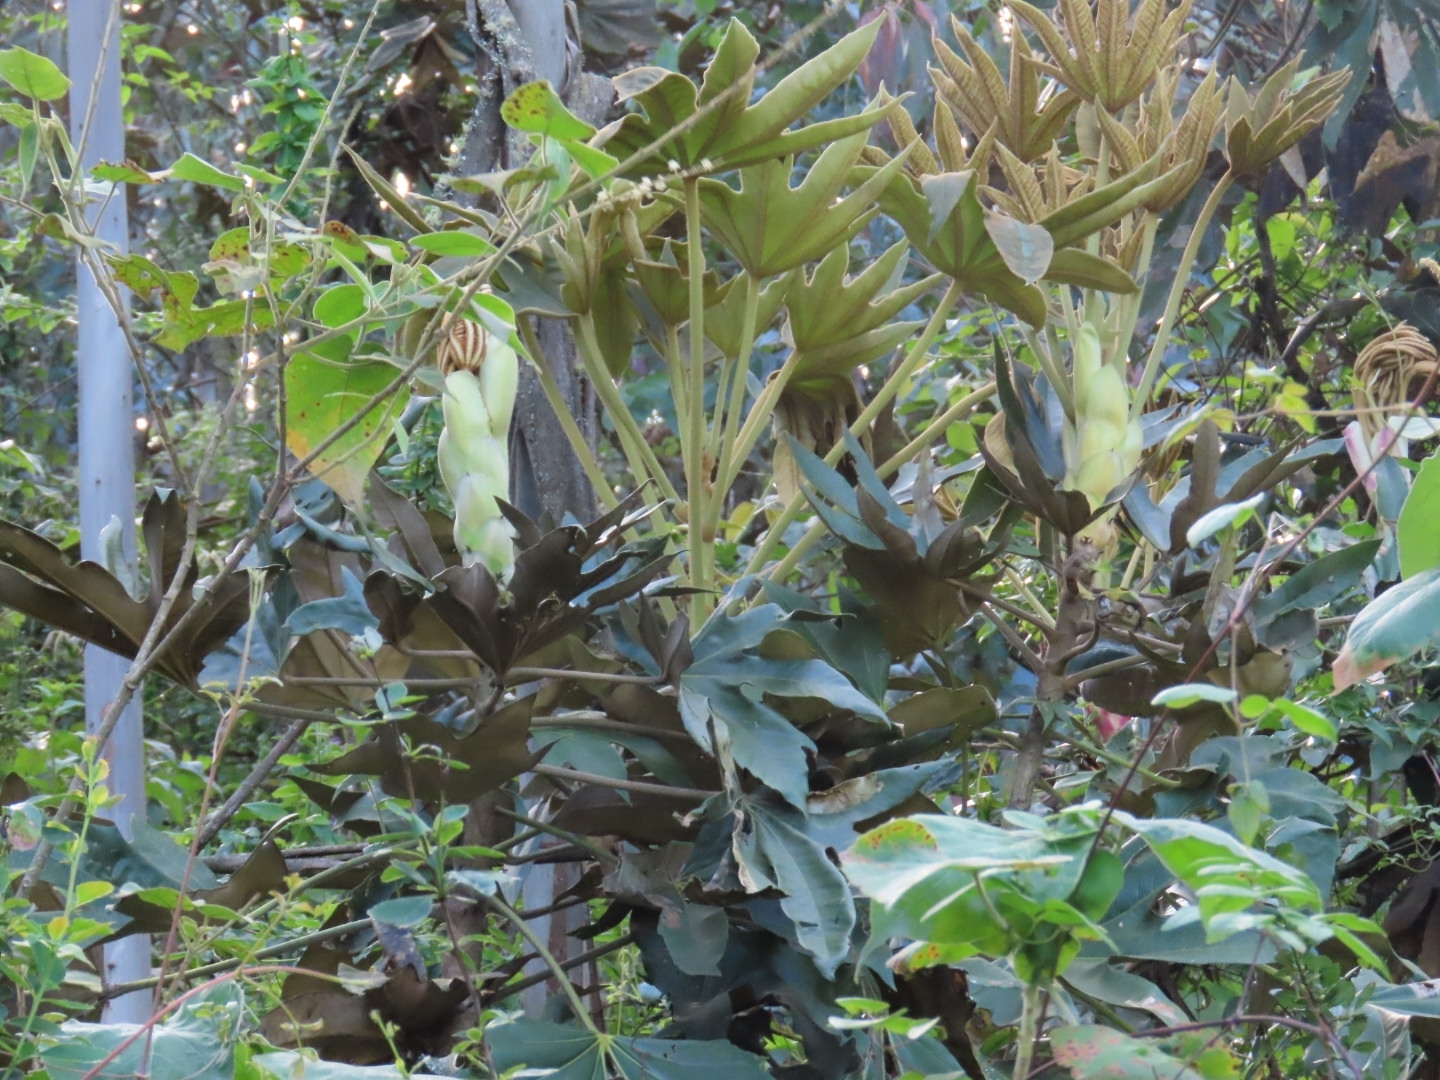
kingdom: Plantae
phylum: Tracheophyta
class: Magnoliopsida
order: Apiales
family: Araliaceae
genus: Oreopanax
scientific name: Oreopanax eriocephalus
